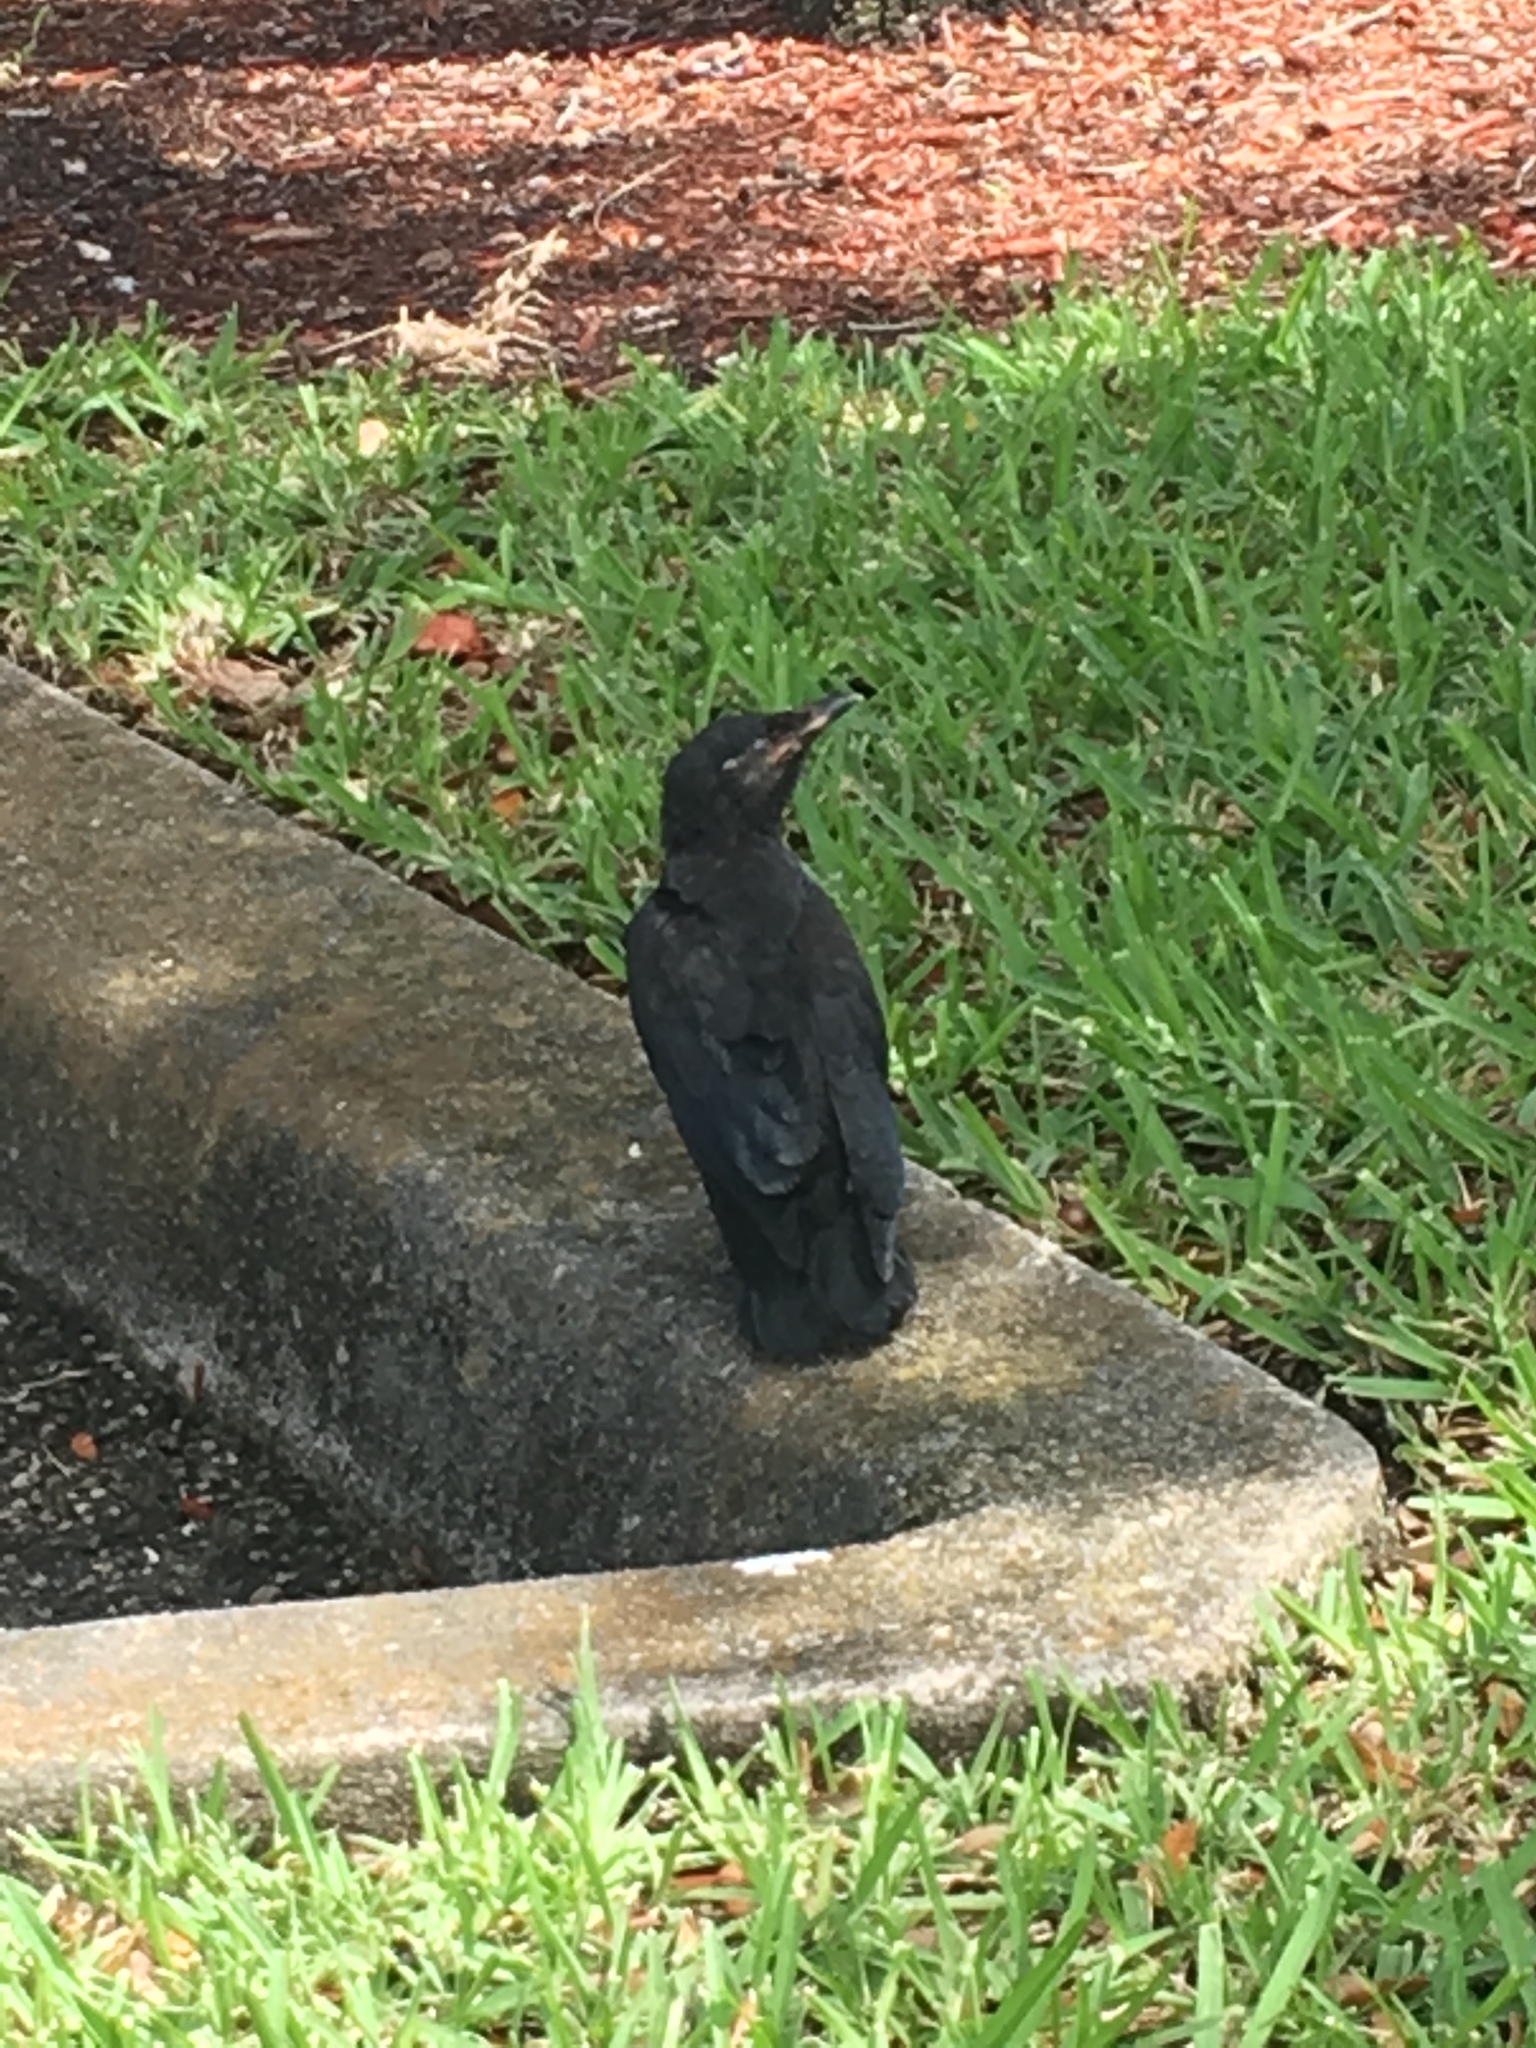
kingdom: Animalia
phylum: Chordata
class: Aves
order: Passeriformes
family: Corvidae
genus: Corvus
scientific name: Corvus ossifragus
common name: Fish crow
